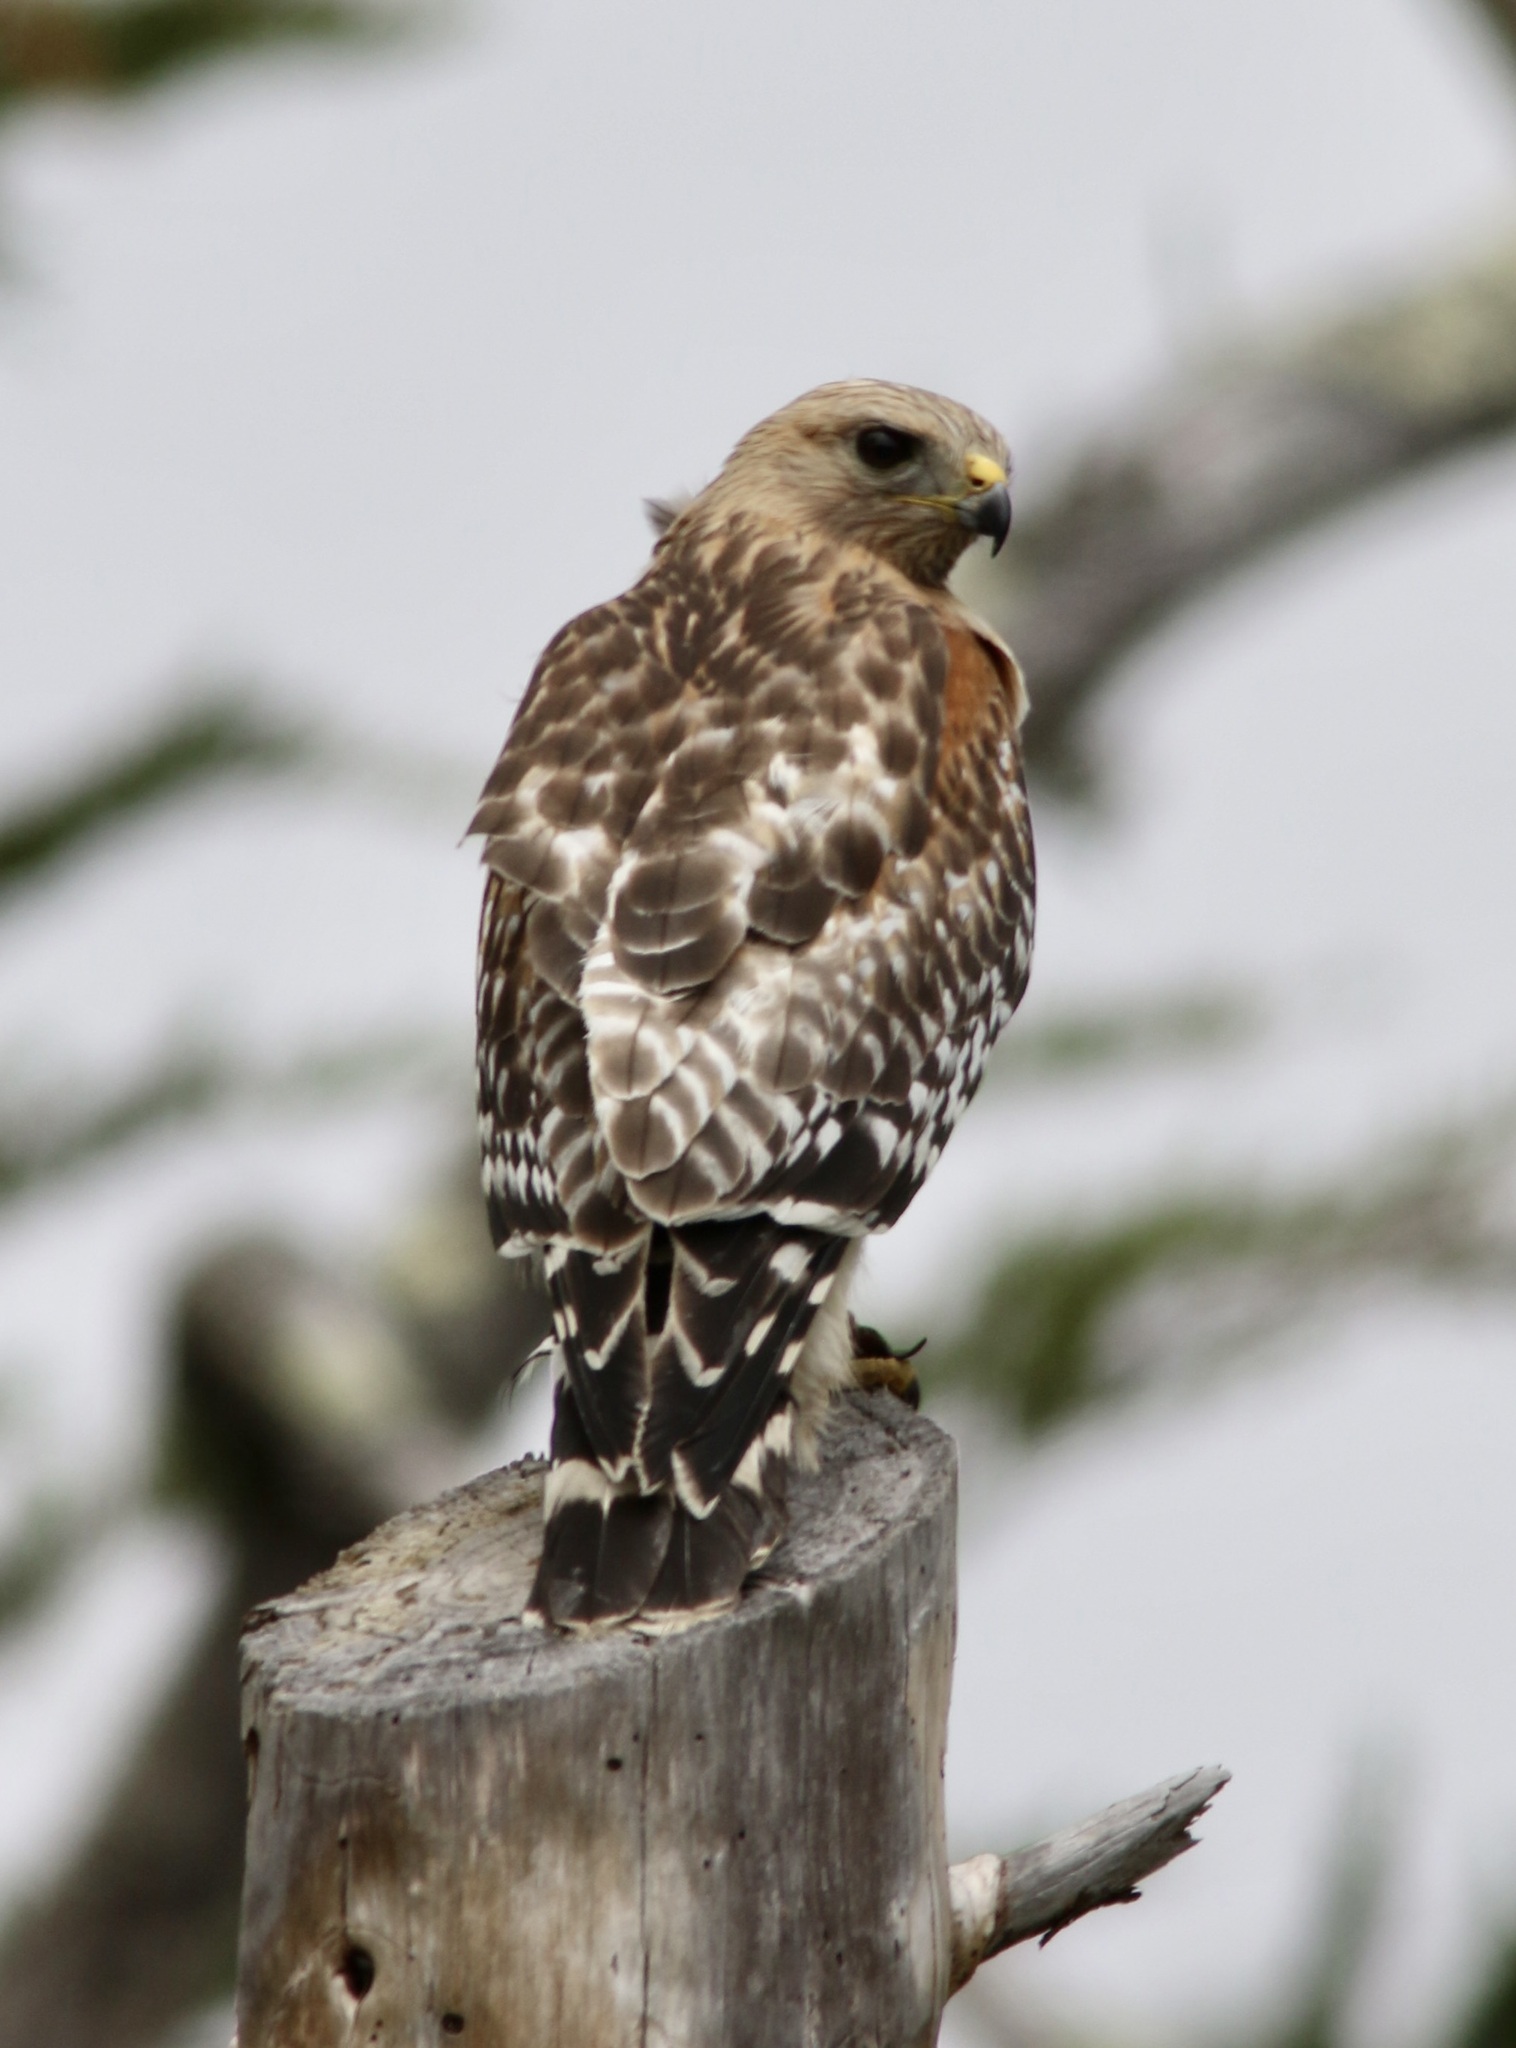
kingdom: Animalia
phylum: Chordata
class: Aves
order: Accipitriformes
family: Accipitridae
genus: Buteo
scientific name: Buteo lineatus
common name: Red-shouldered hawk
